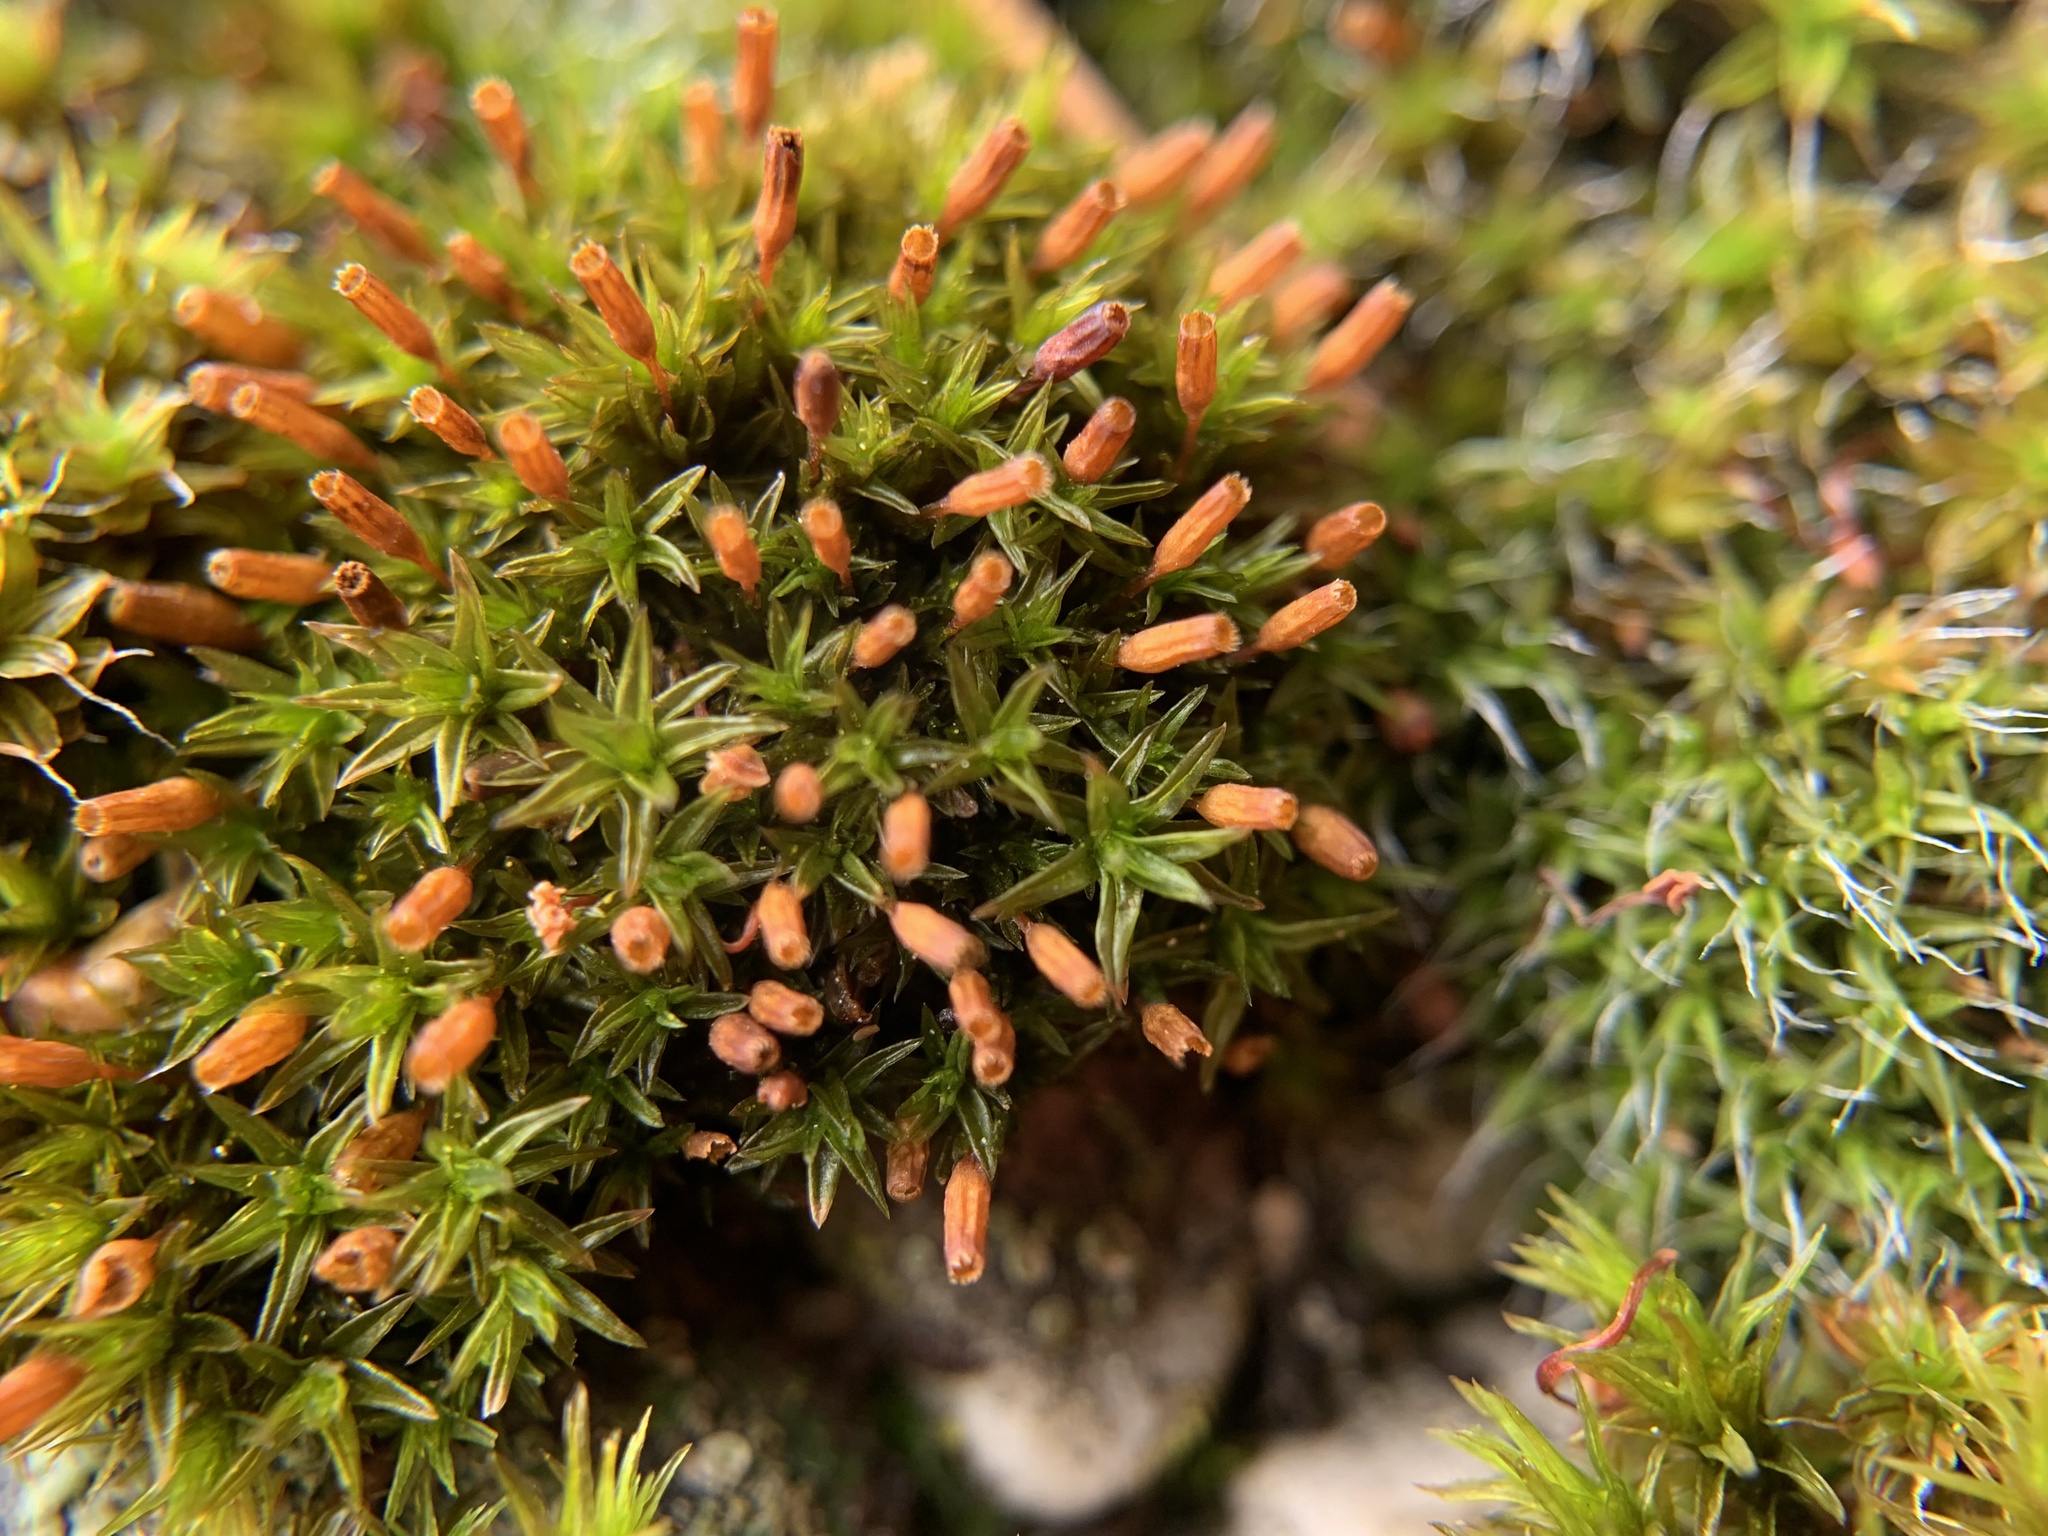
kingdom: Plantae
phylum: Bryophyta
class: Bryopsida
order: Orthotrichales
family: Orthotrichaceae
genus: Orthotrichum
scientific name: Orthotrichum anomalum
